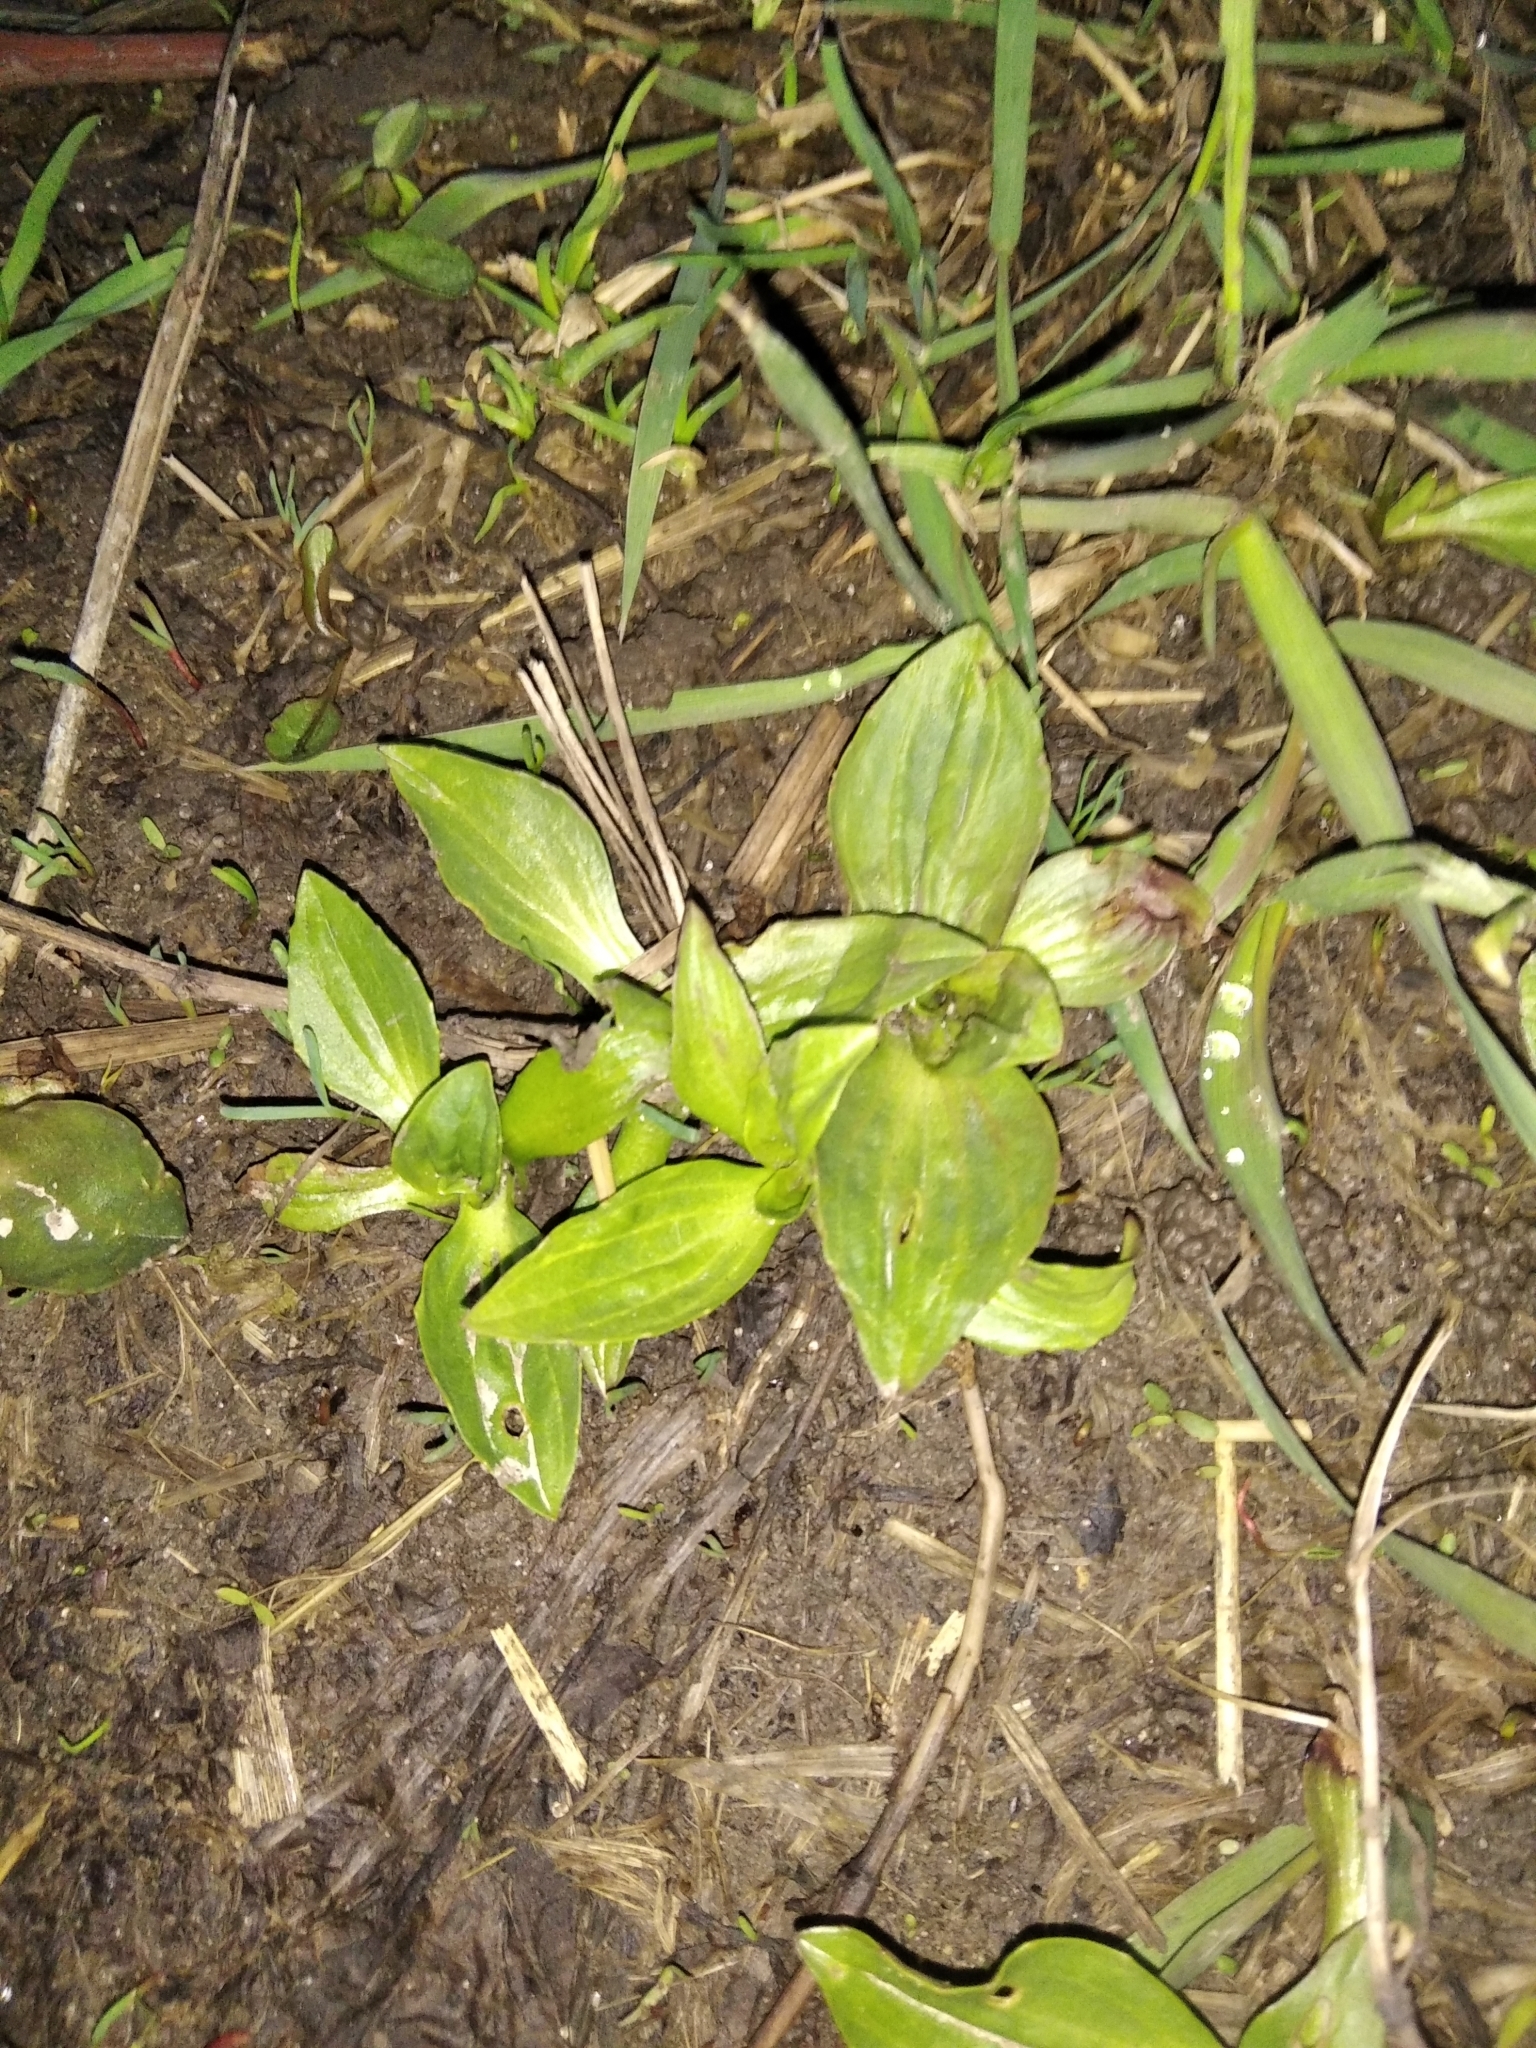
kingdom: Plantae
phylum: Tracheophyta
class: Magnoliopsida
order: Lamiales
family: Plantaginaceae
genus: Plantago
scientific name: Plantago major
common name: Common plantain
